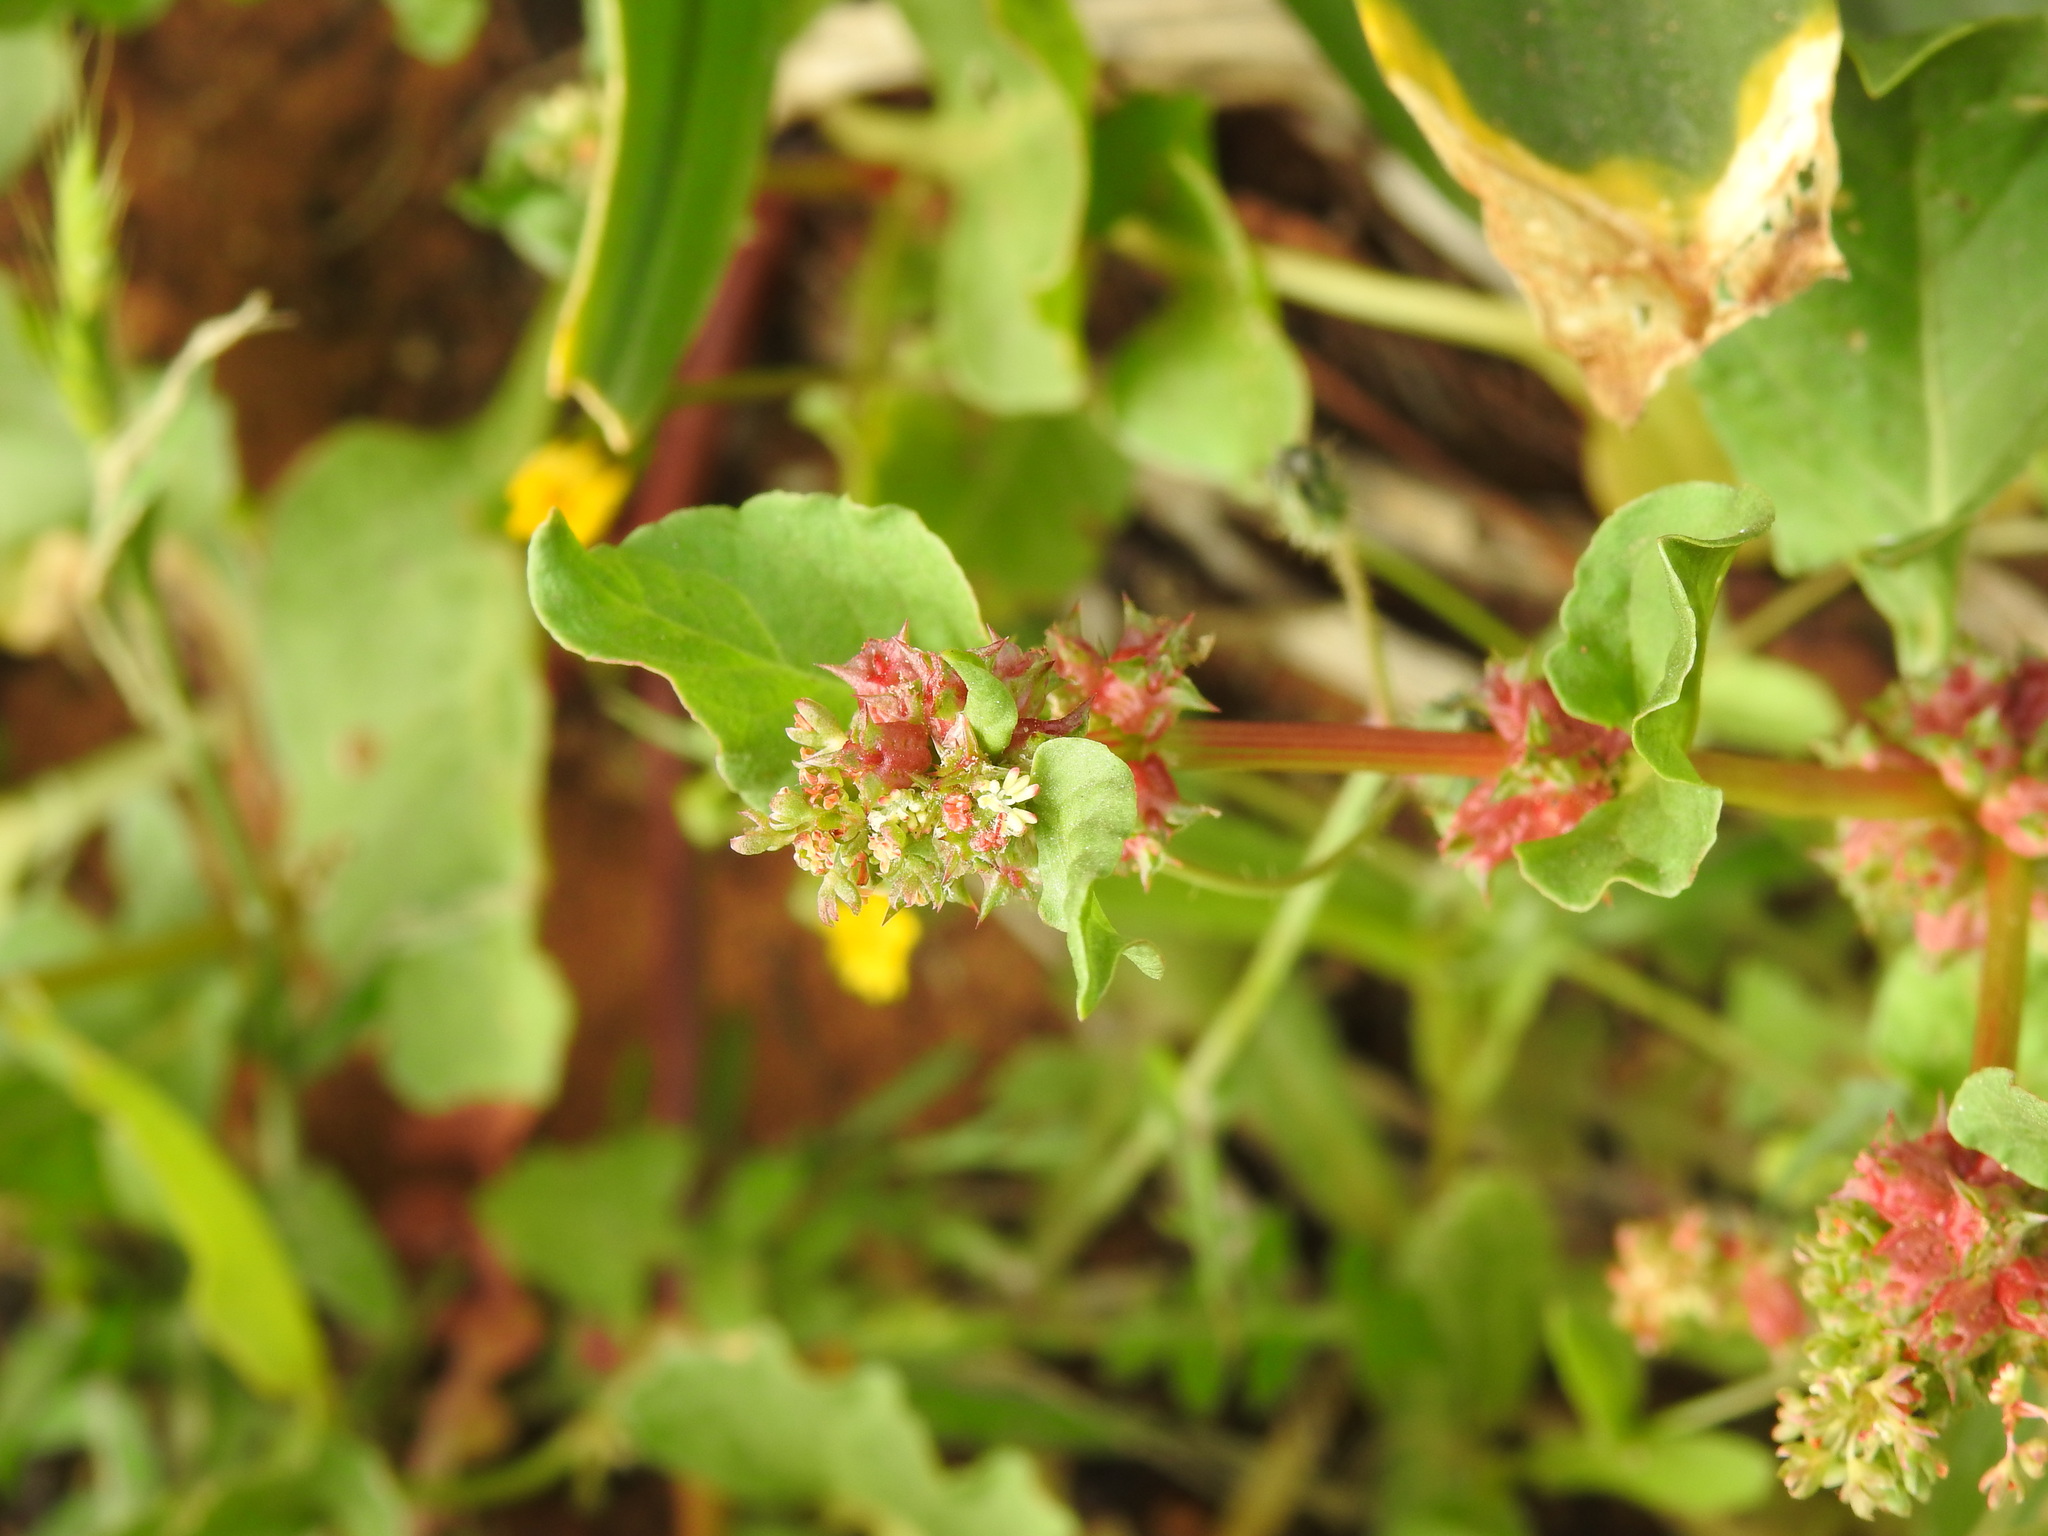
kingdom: Plantae
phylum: Tracheophyta
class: Magnoliopsida
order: Caryophyllales
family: Polygonaceae
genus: Rumex
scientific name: Rumex spinosus
